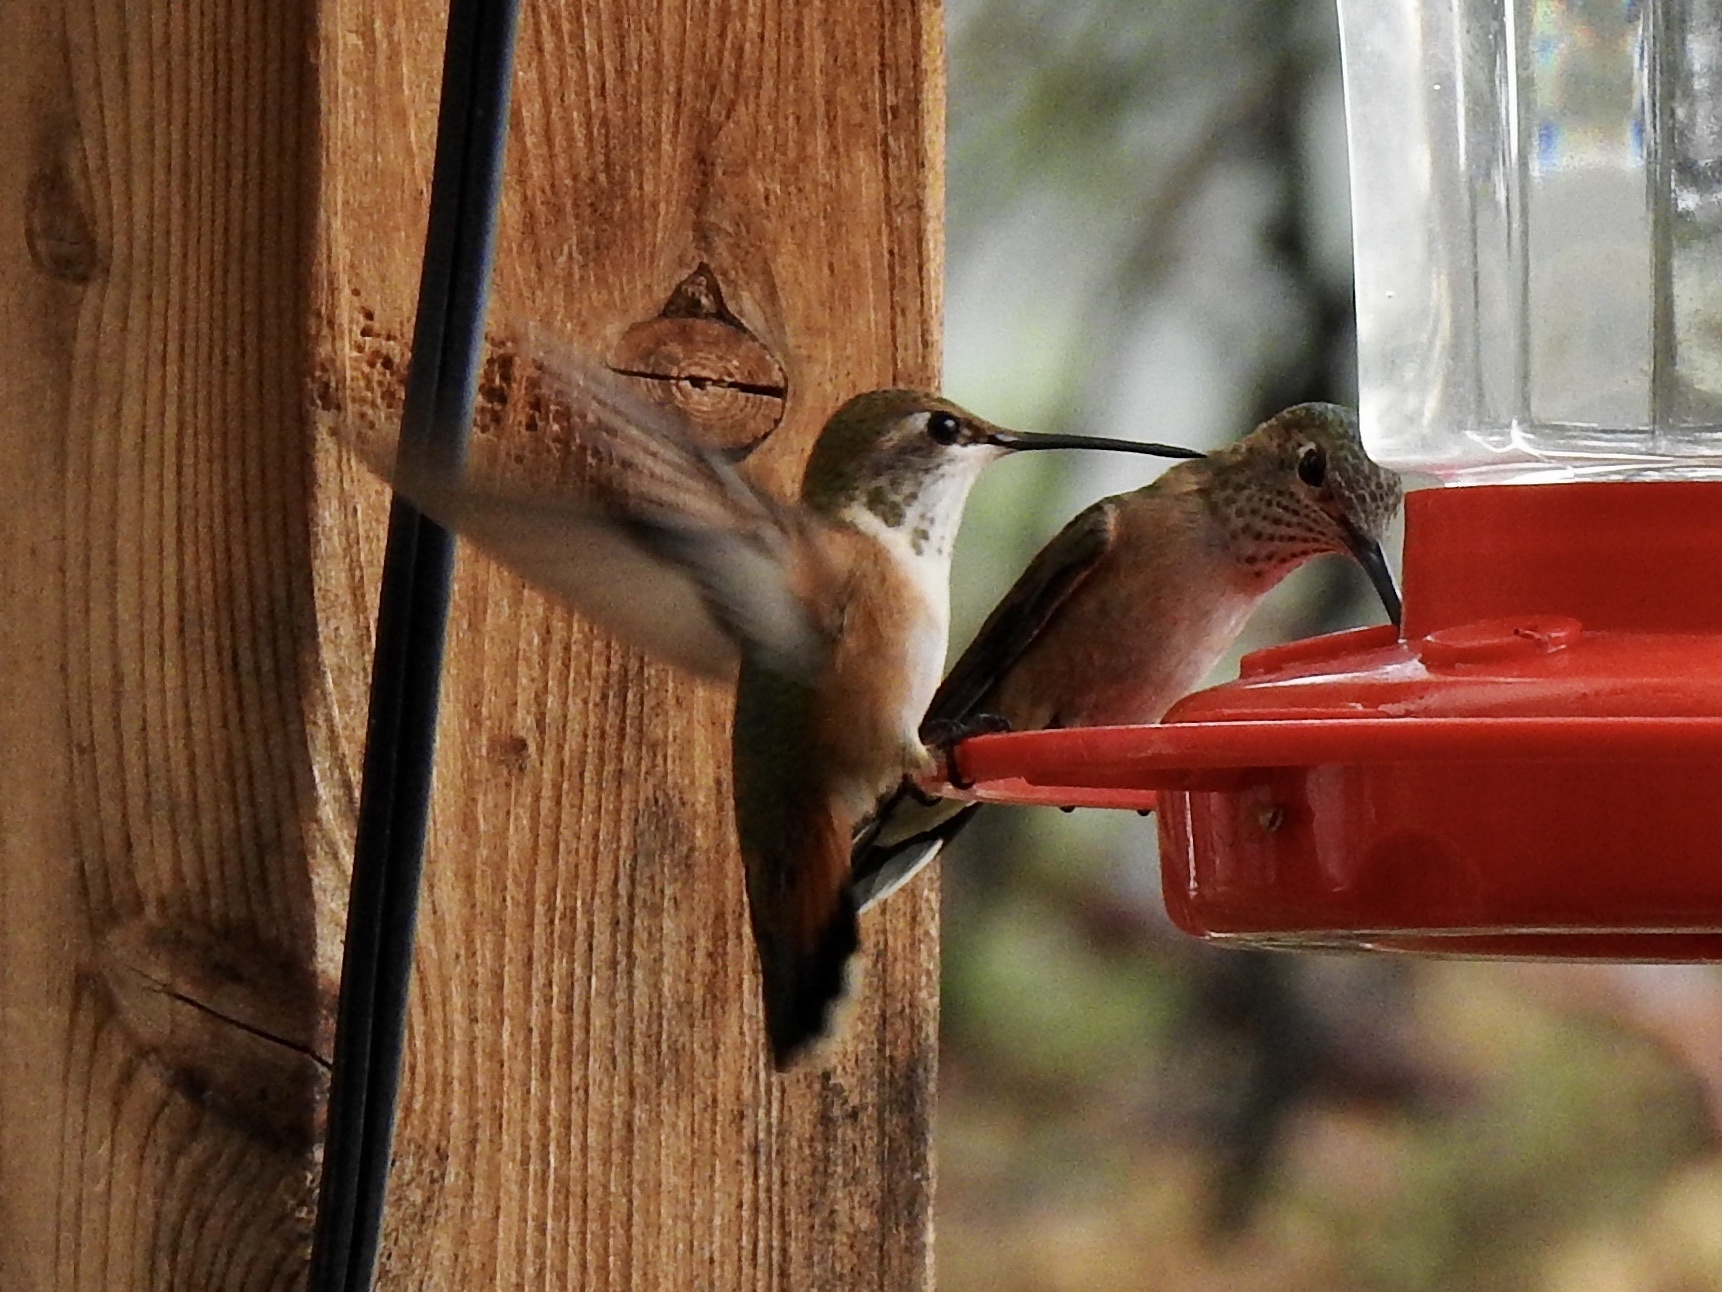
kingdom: Animalia
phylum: Chordata
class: Aves
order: Apodiformes
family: Trochilidae
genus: Selasphorus
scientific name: Selasphorus rufus
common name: Rufous hummingbird
